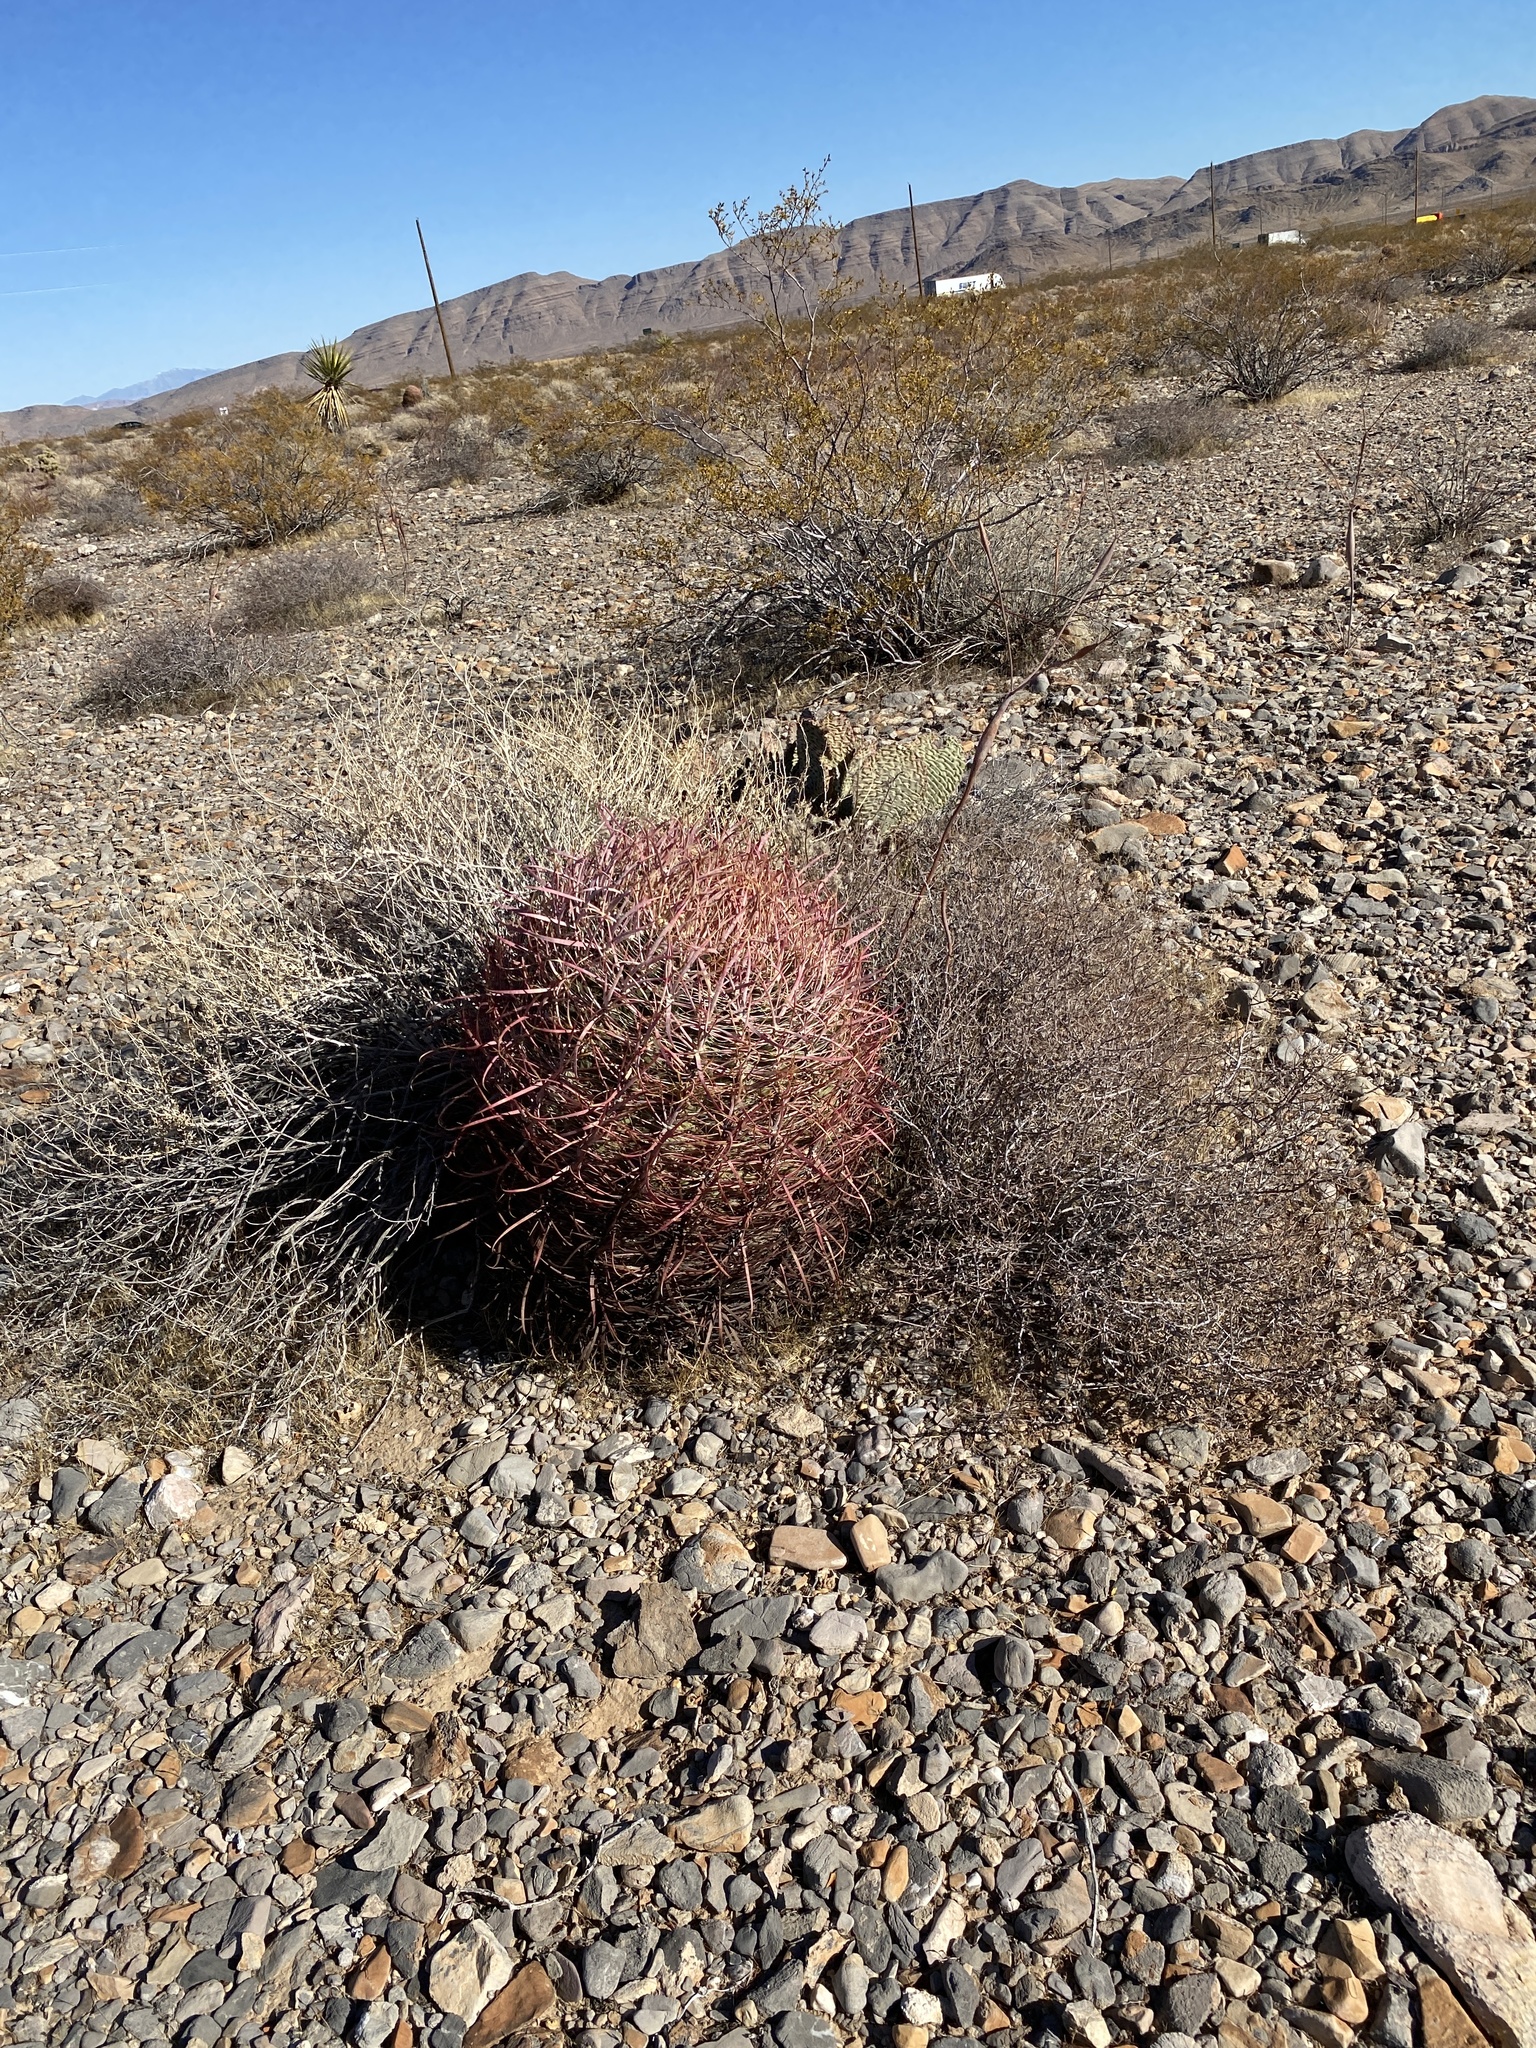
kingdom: Plantae
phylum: Tracheophyta
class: Magnoliopsida
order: Caryophyllales
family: Cactaceae
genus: Ferocactus
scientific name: Ferocactus cylindraceus
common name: California barrel cactus
